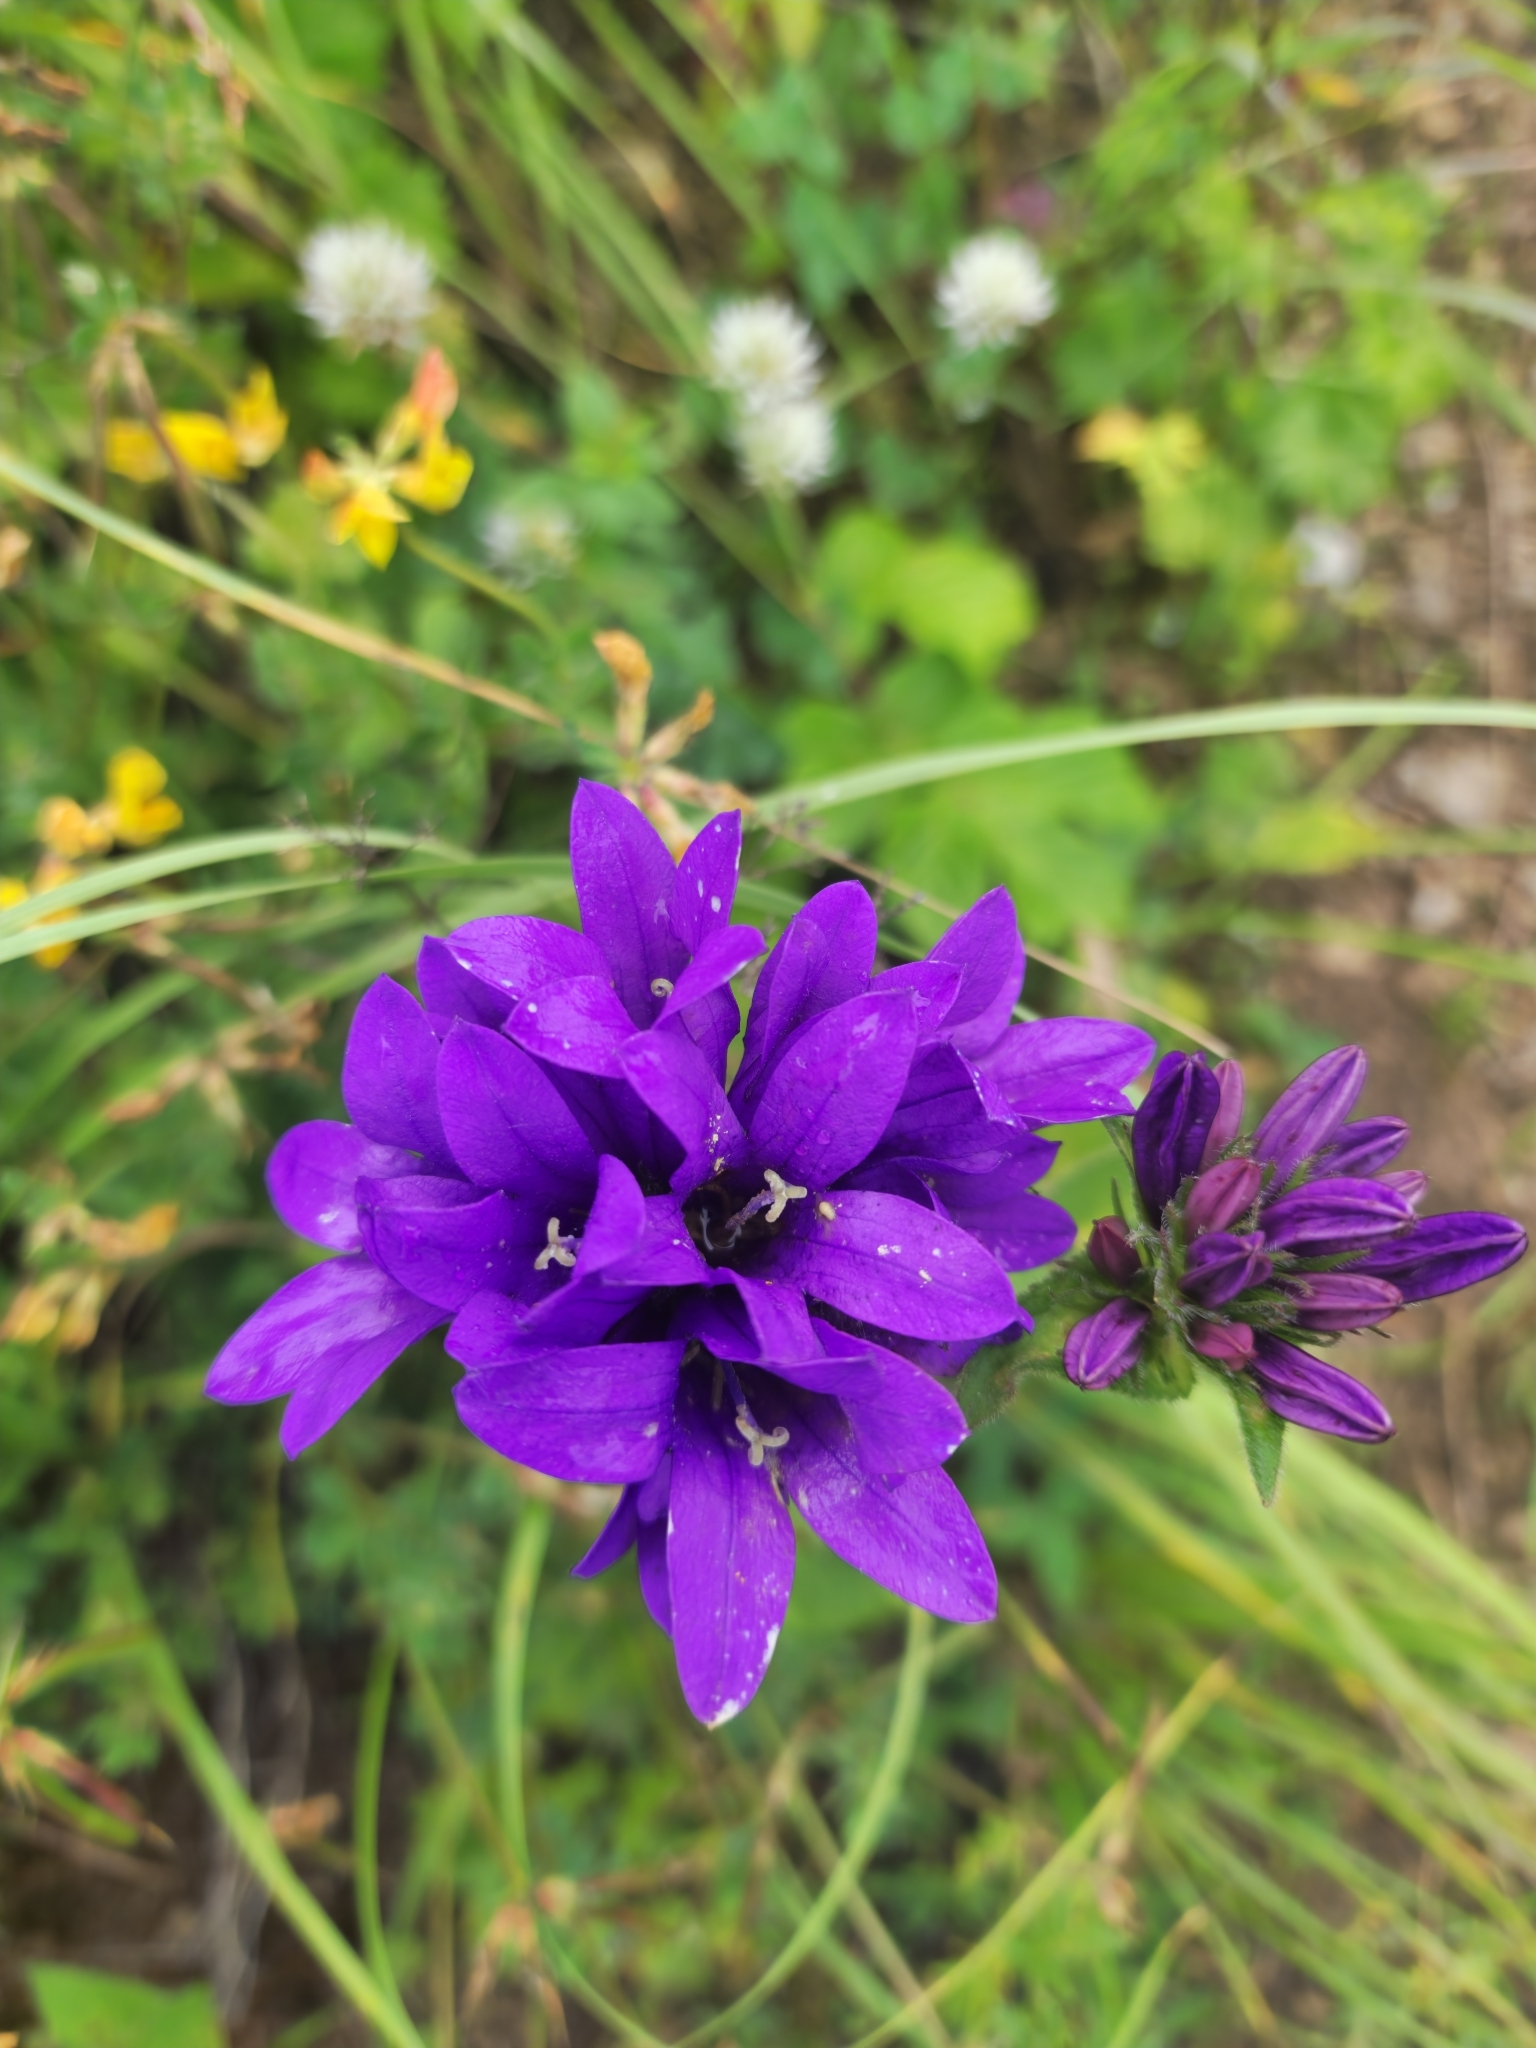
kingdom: Plantae
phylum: Tracheophyta
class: Magnoliopsida
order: Asterales
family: Campanulaceae
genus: Campanula
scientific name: Campanula glomerata
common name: Clustered bellflower
